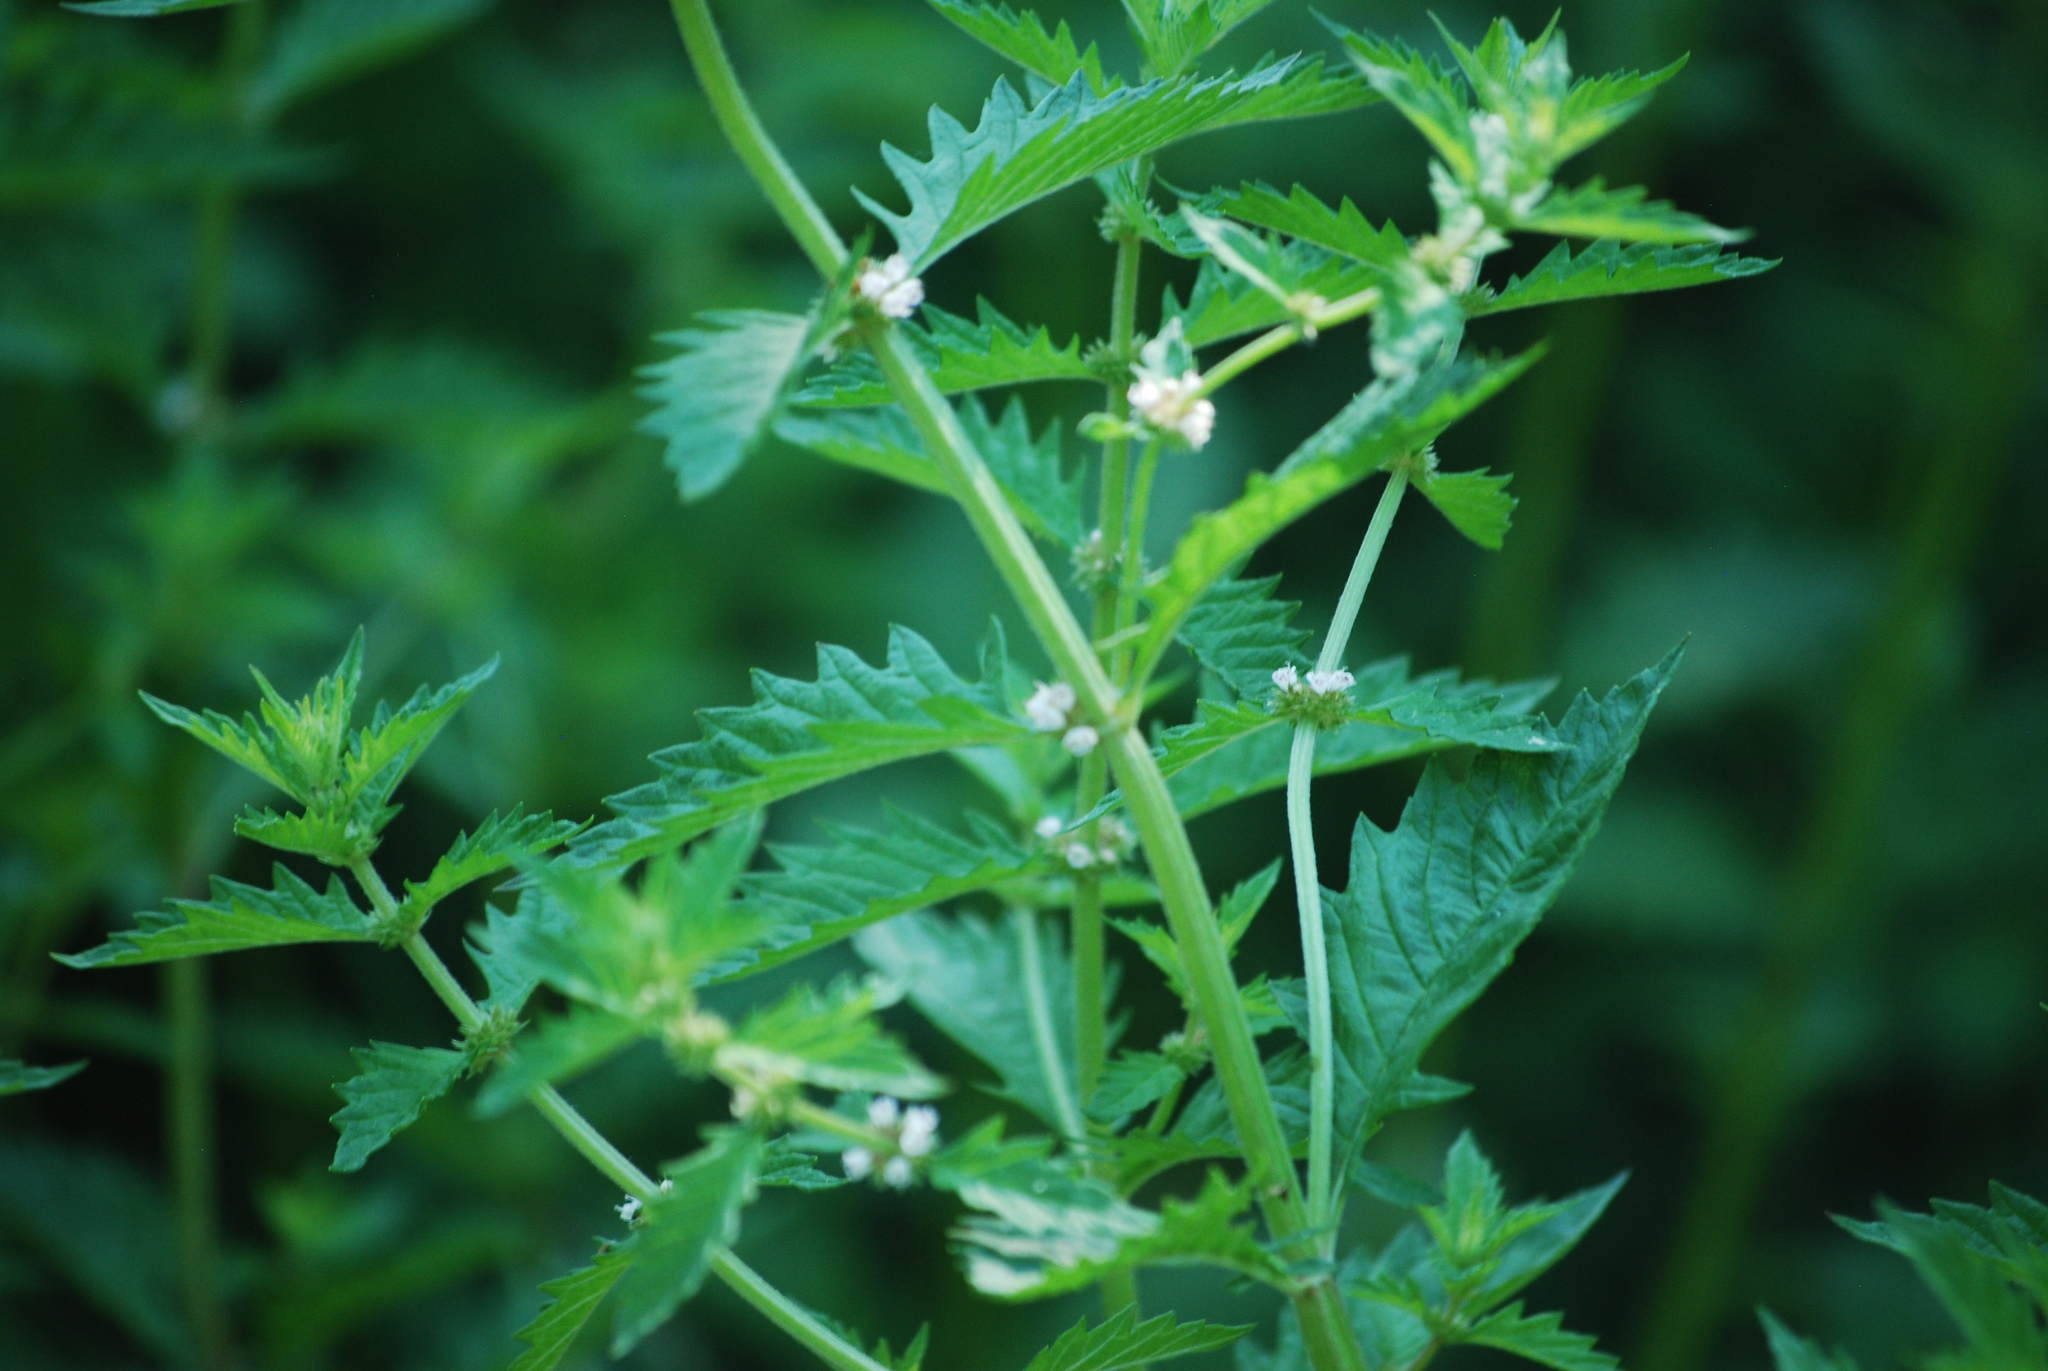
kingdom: Plantae
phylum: Tracheophyta
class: Magnoliopsida
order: Lamiales
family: Lamiaceae
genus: Lycopus
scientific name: Lycopus europaeus
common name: European bugleweed
